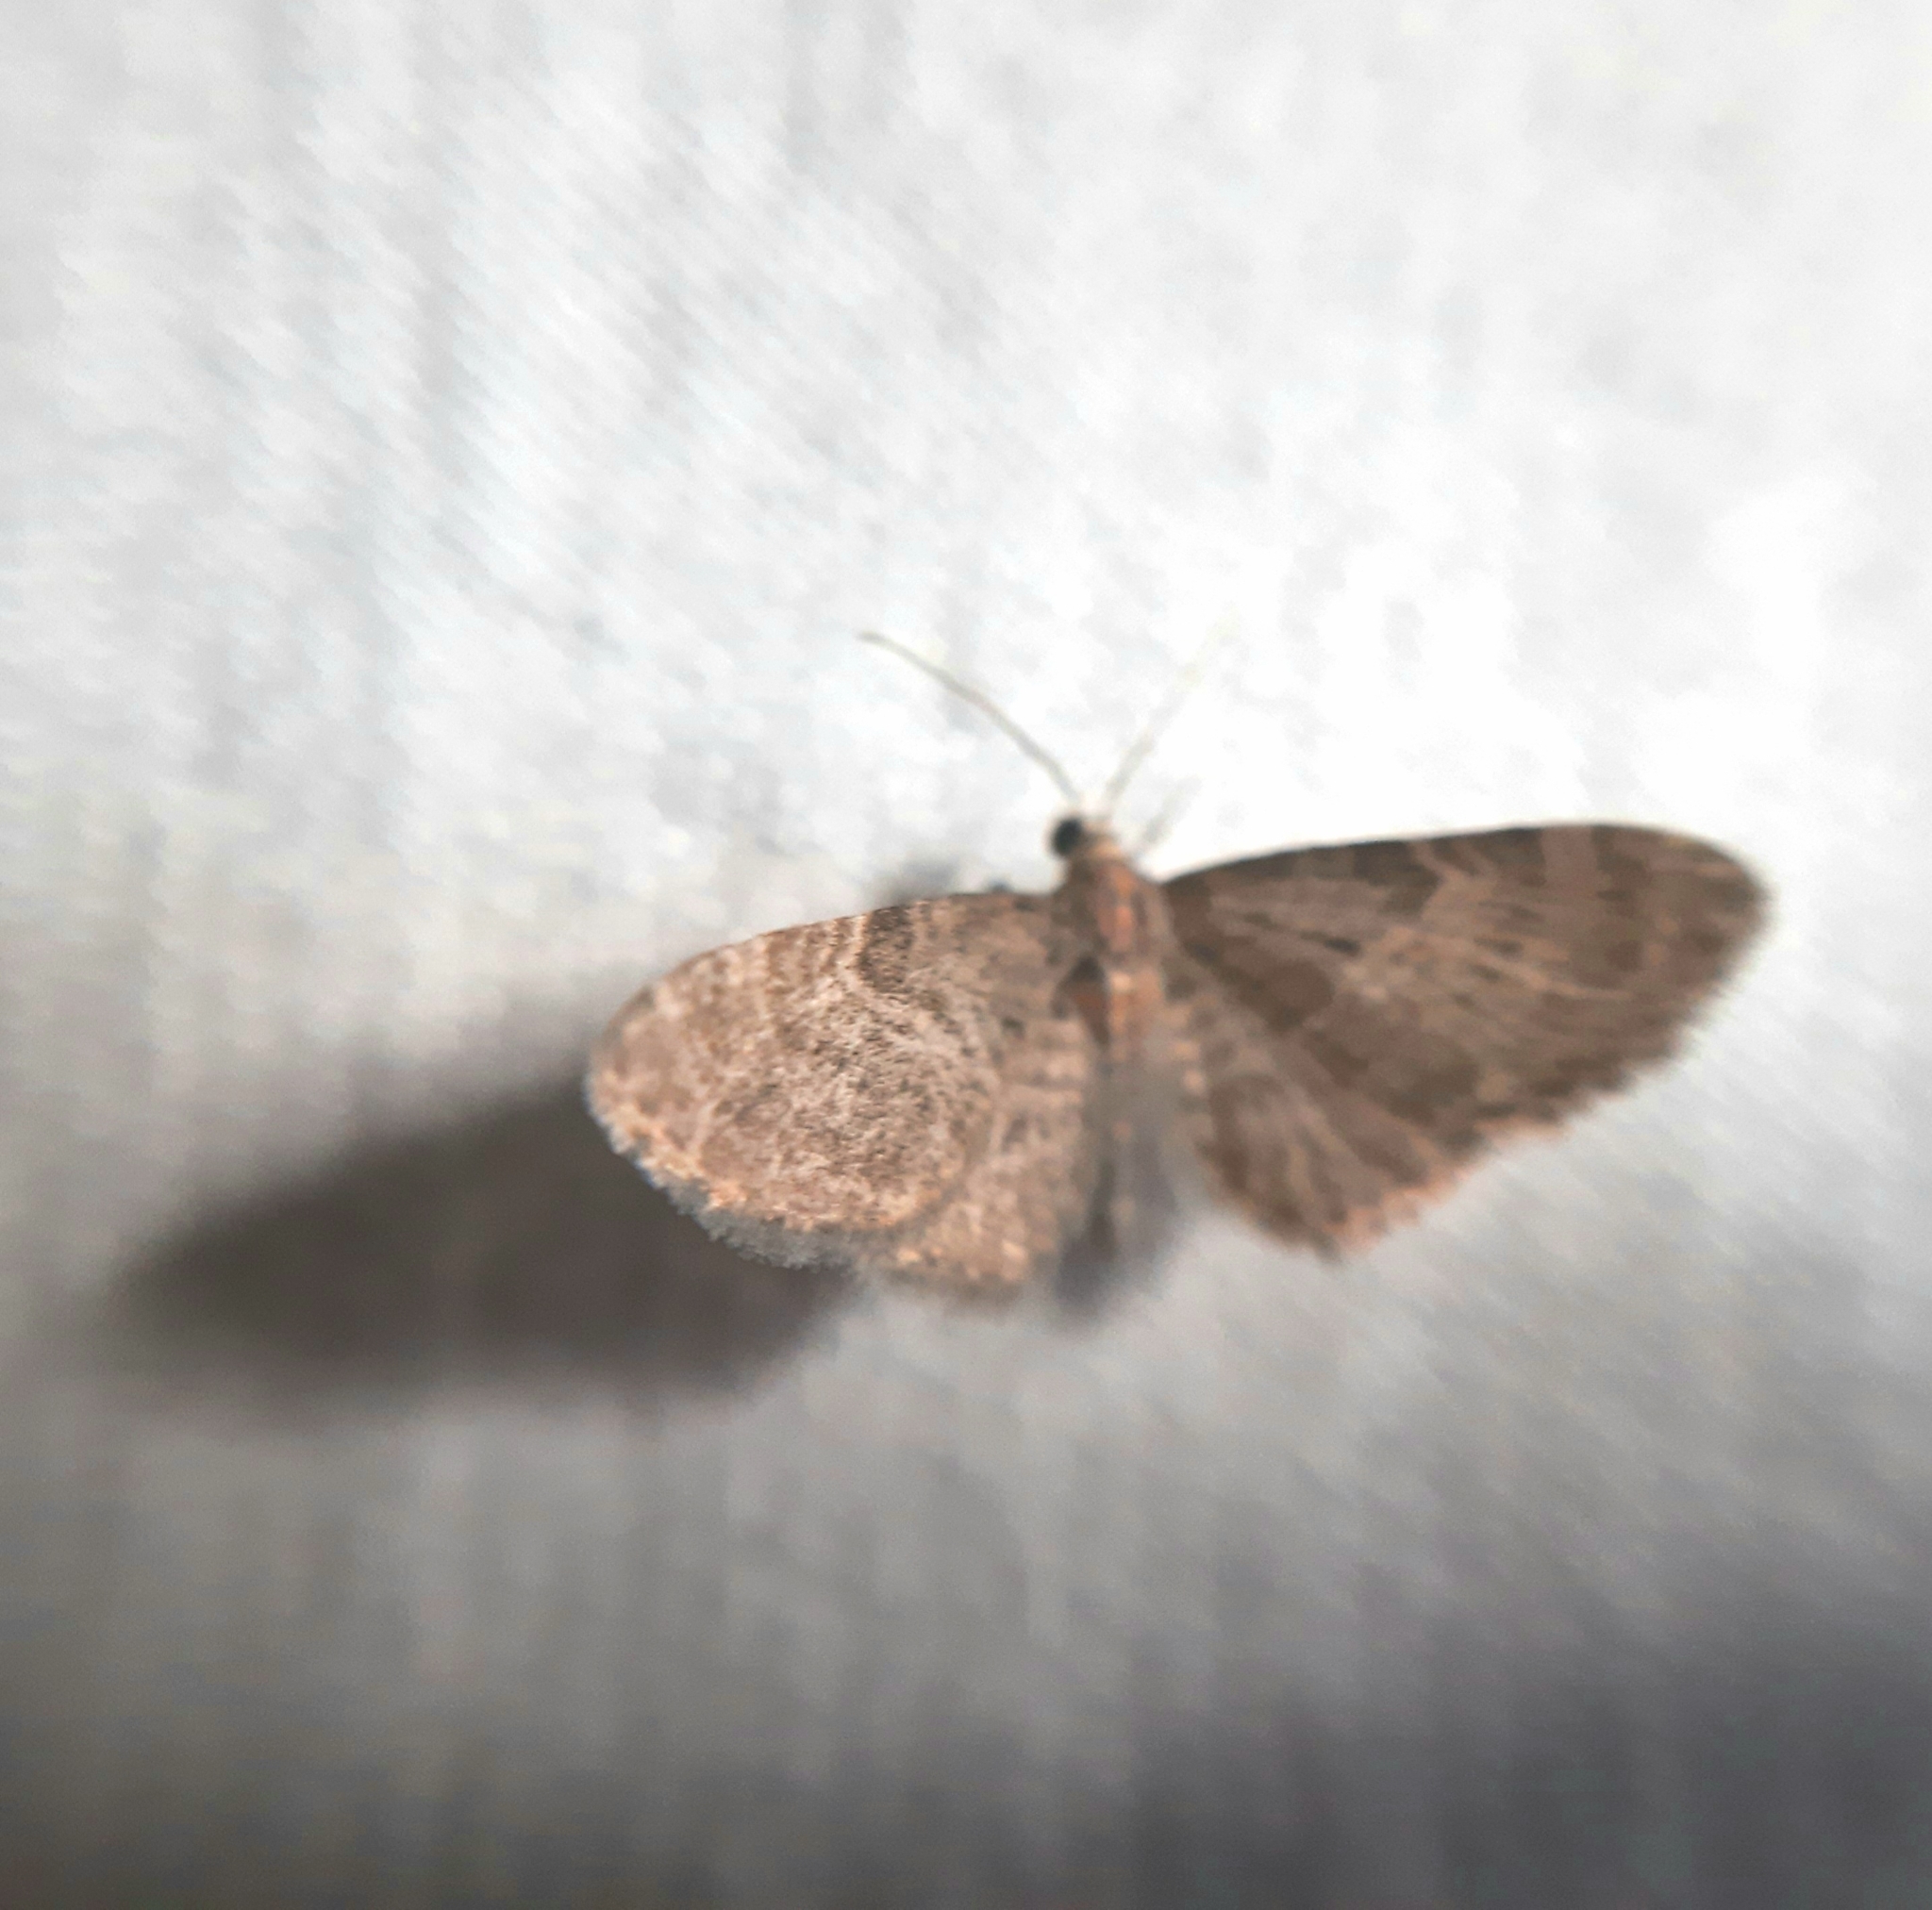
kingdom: Animalia
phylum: Arthropoda
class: Insecta
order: Lepidoptera
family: Geometridae
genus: Gymnoscelis
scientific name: Gymnoscelis rufifasciata
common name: Double-striped pug
